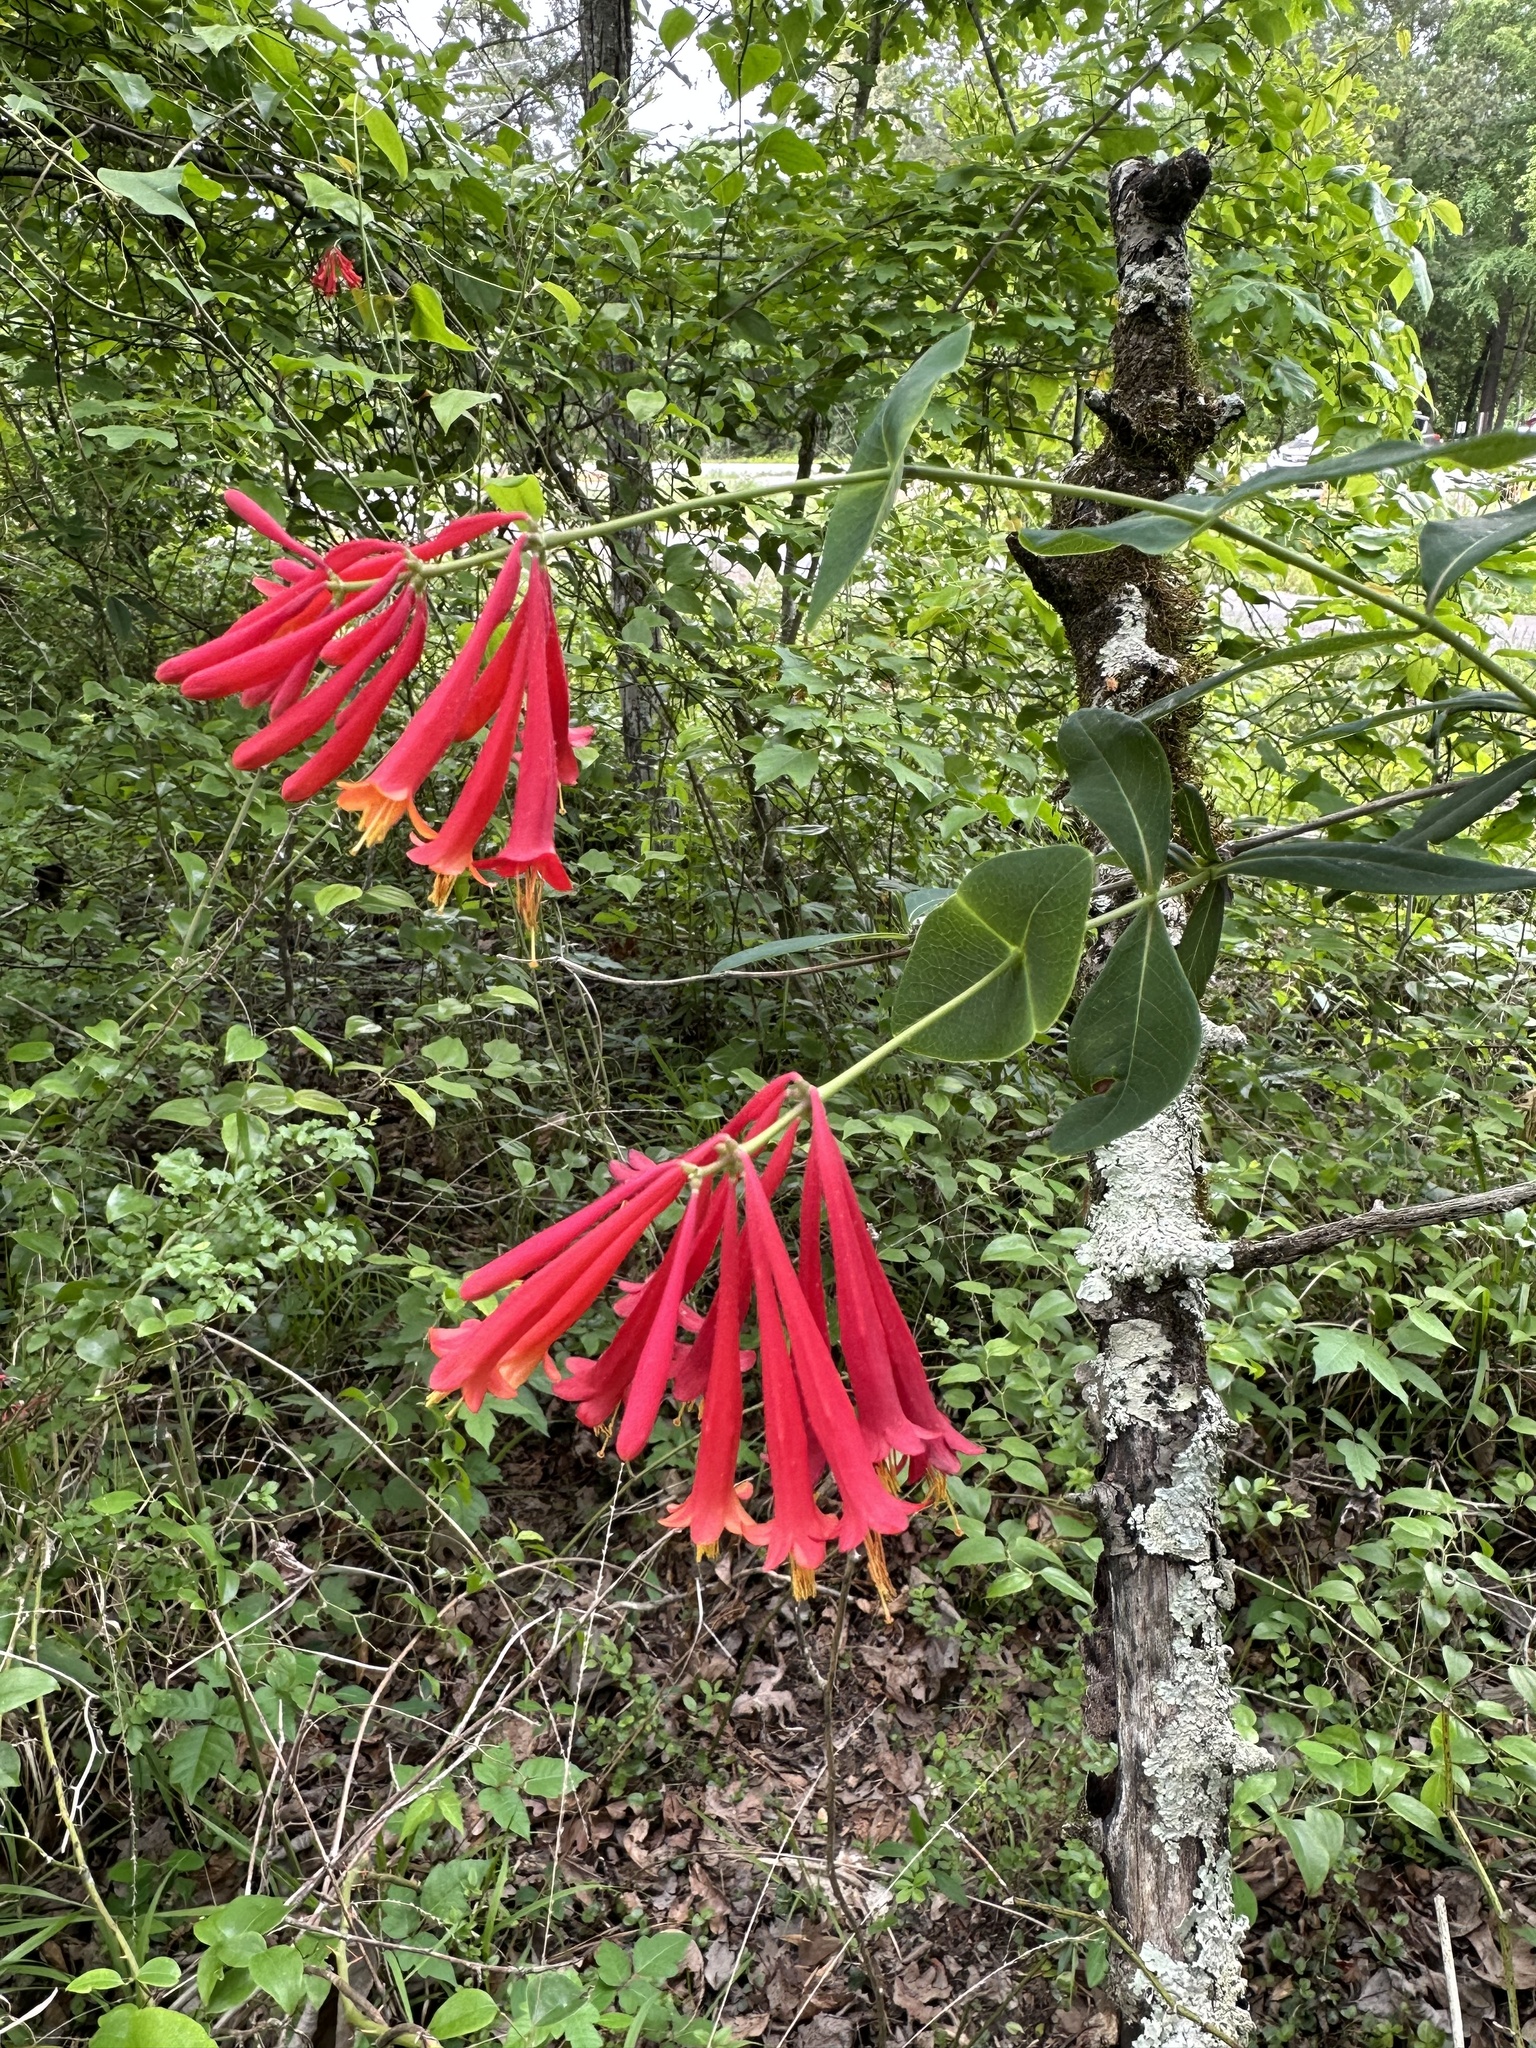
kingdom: Plantae
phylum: Tracheophyta
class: Magnoliopsida
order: Dipsacales
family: Caprifoliaceae
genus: Lonicera
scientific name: Lonicera sempervirens
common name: Coral honeysuckle
